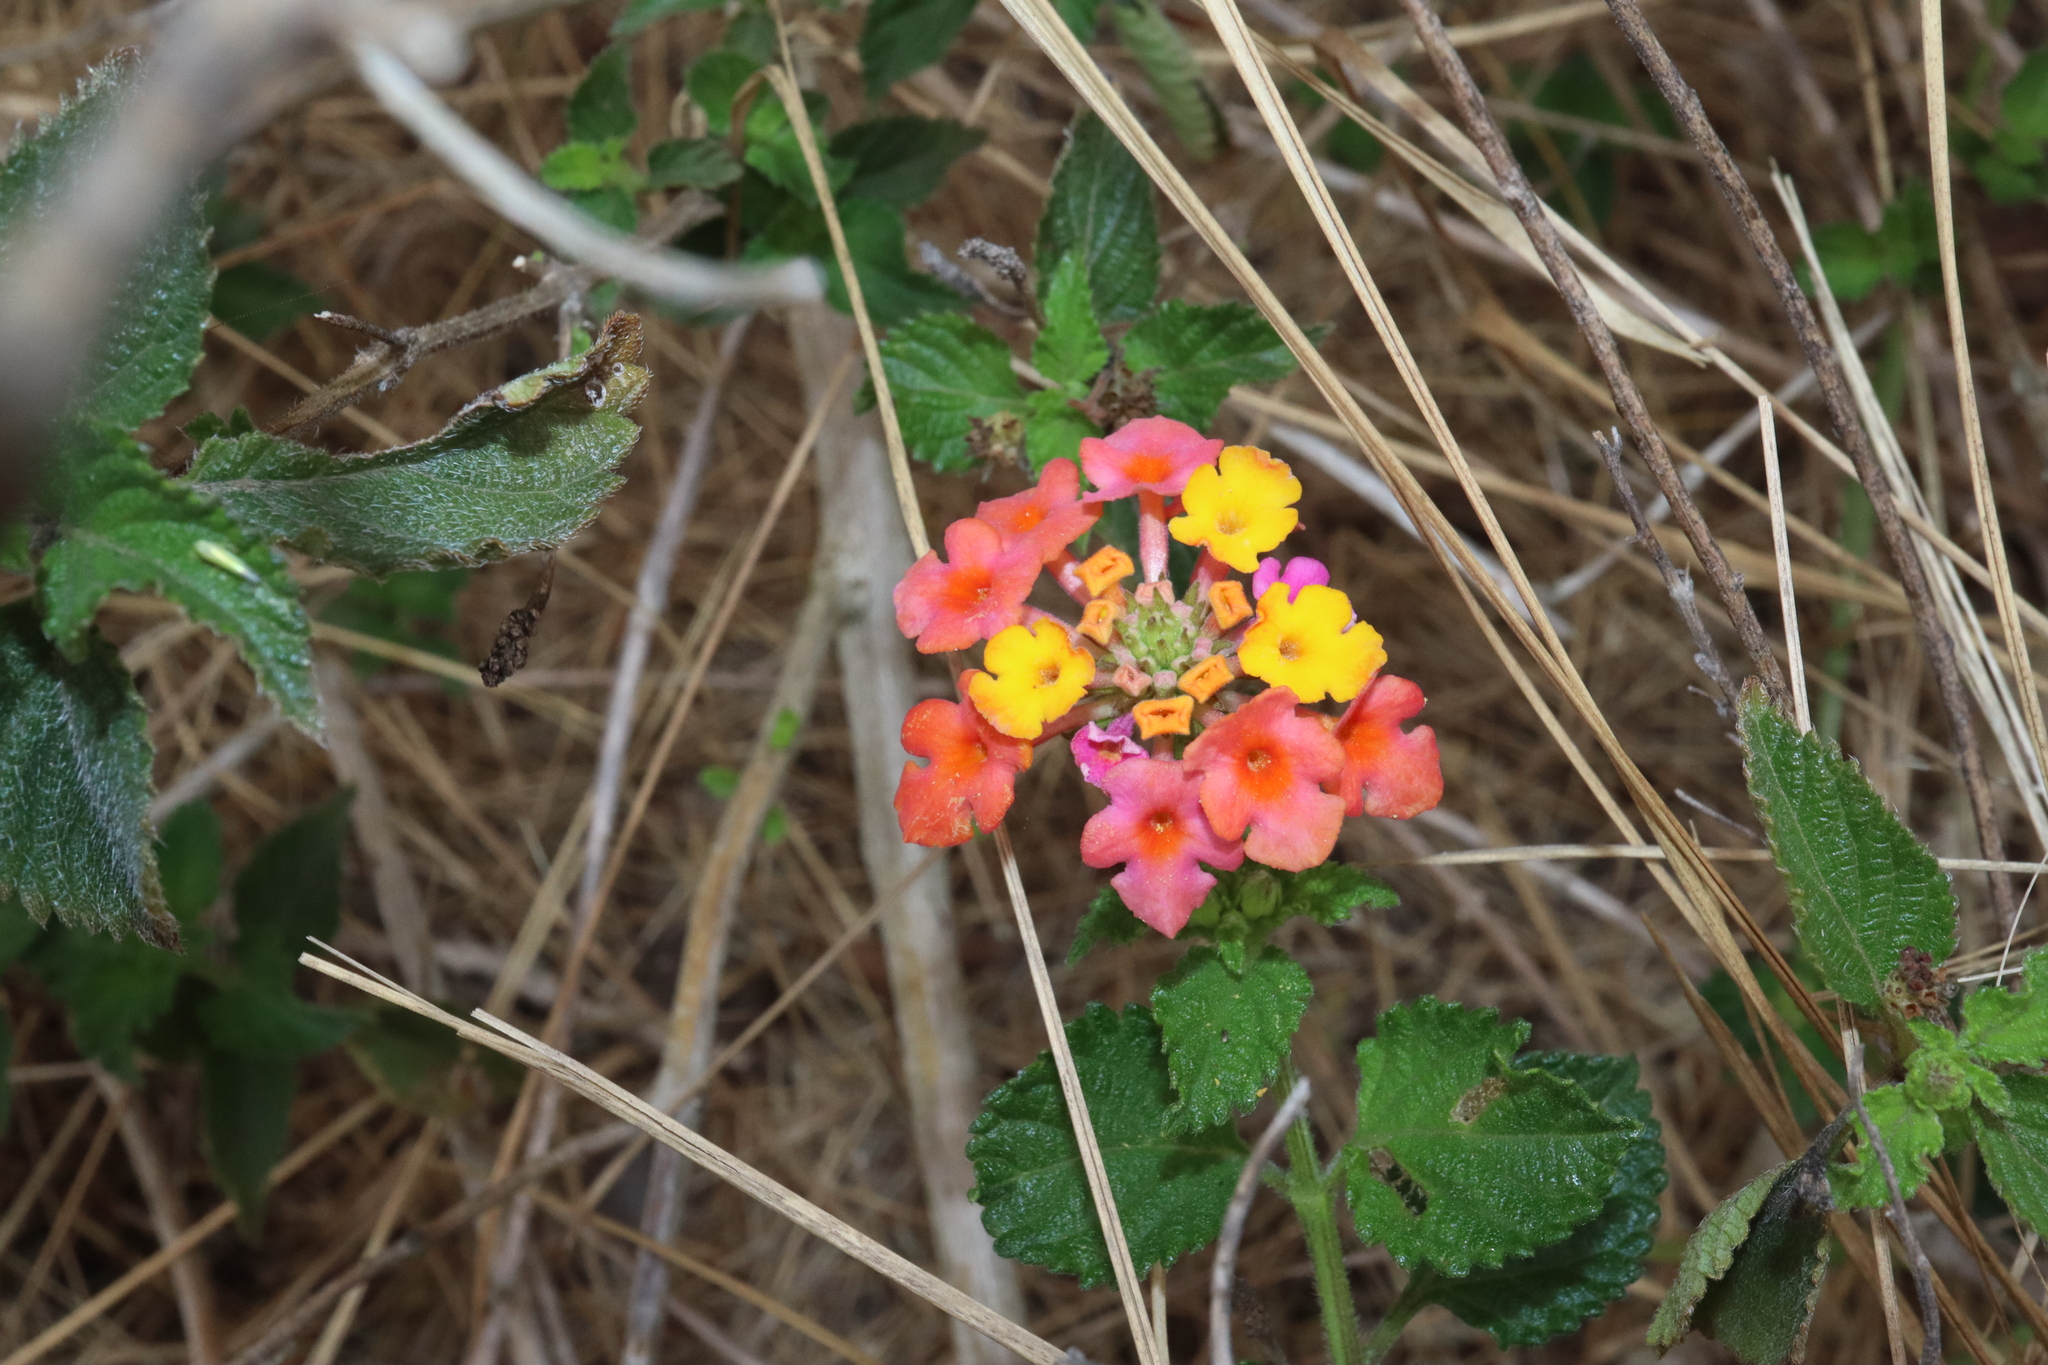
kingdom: Plantae
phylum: Tracheophyta
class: Magnoliopsida
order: Lamiales
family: Verbenaceae
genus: Lantana
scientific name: Lantana camara
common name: Lantana
